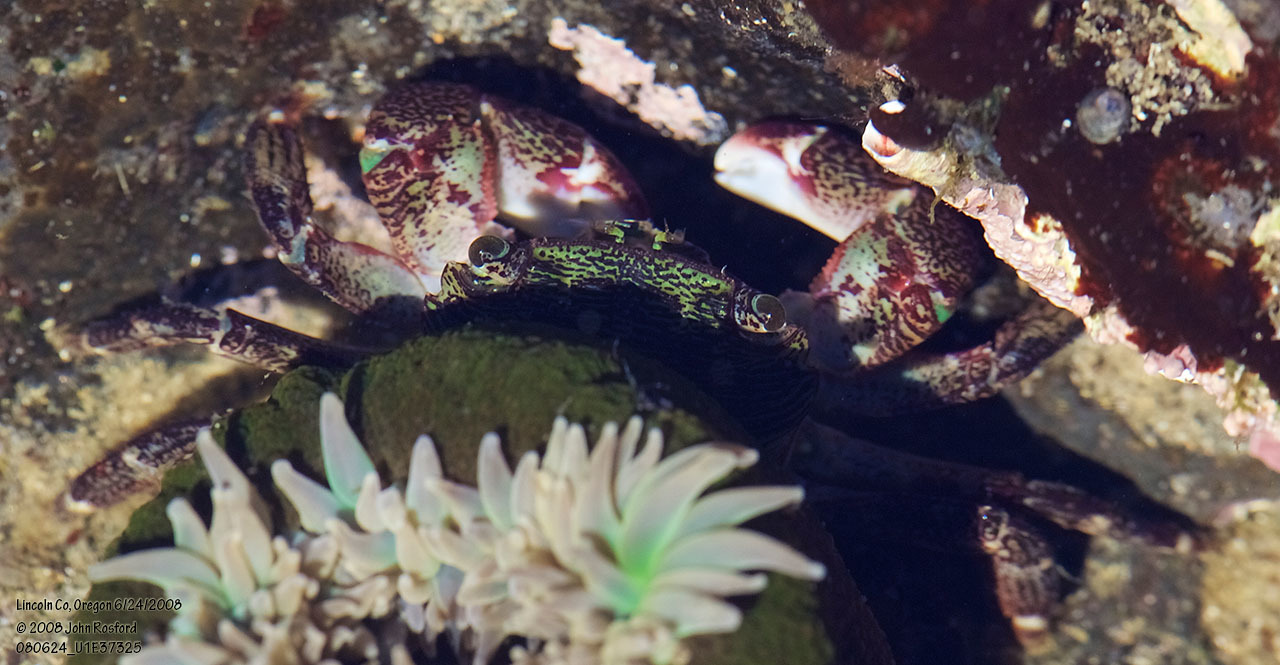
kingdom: Animalia
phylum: Arthropoda
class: Malacostraca
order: Decapoda
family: Grapsidae
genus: Pachygrapsus
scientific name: Pachygrapsus crassipes
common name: Striped shore crab
